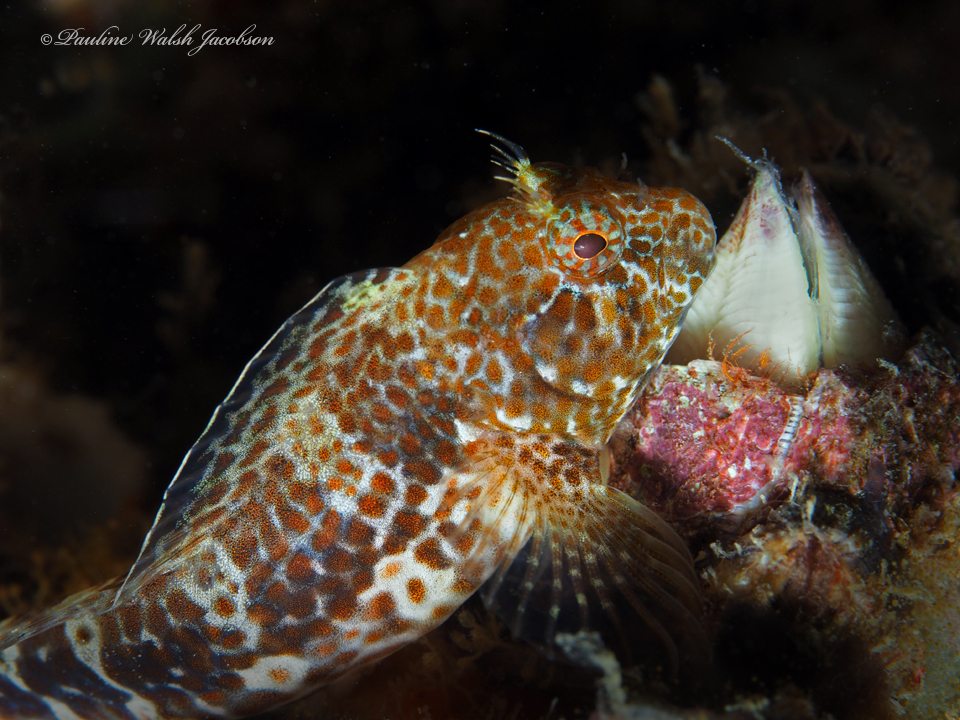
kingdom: Animalia
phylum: Chordata
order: Perciformes
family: Blenniidae
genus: Hypleurochilus
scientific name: Hypleurochilus pseudoaequipinnis
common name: Oyster blenny
